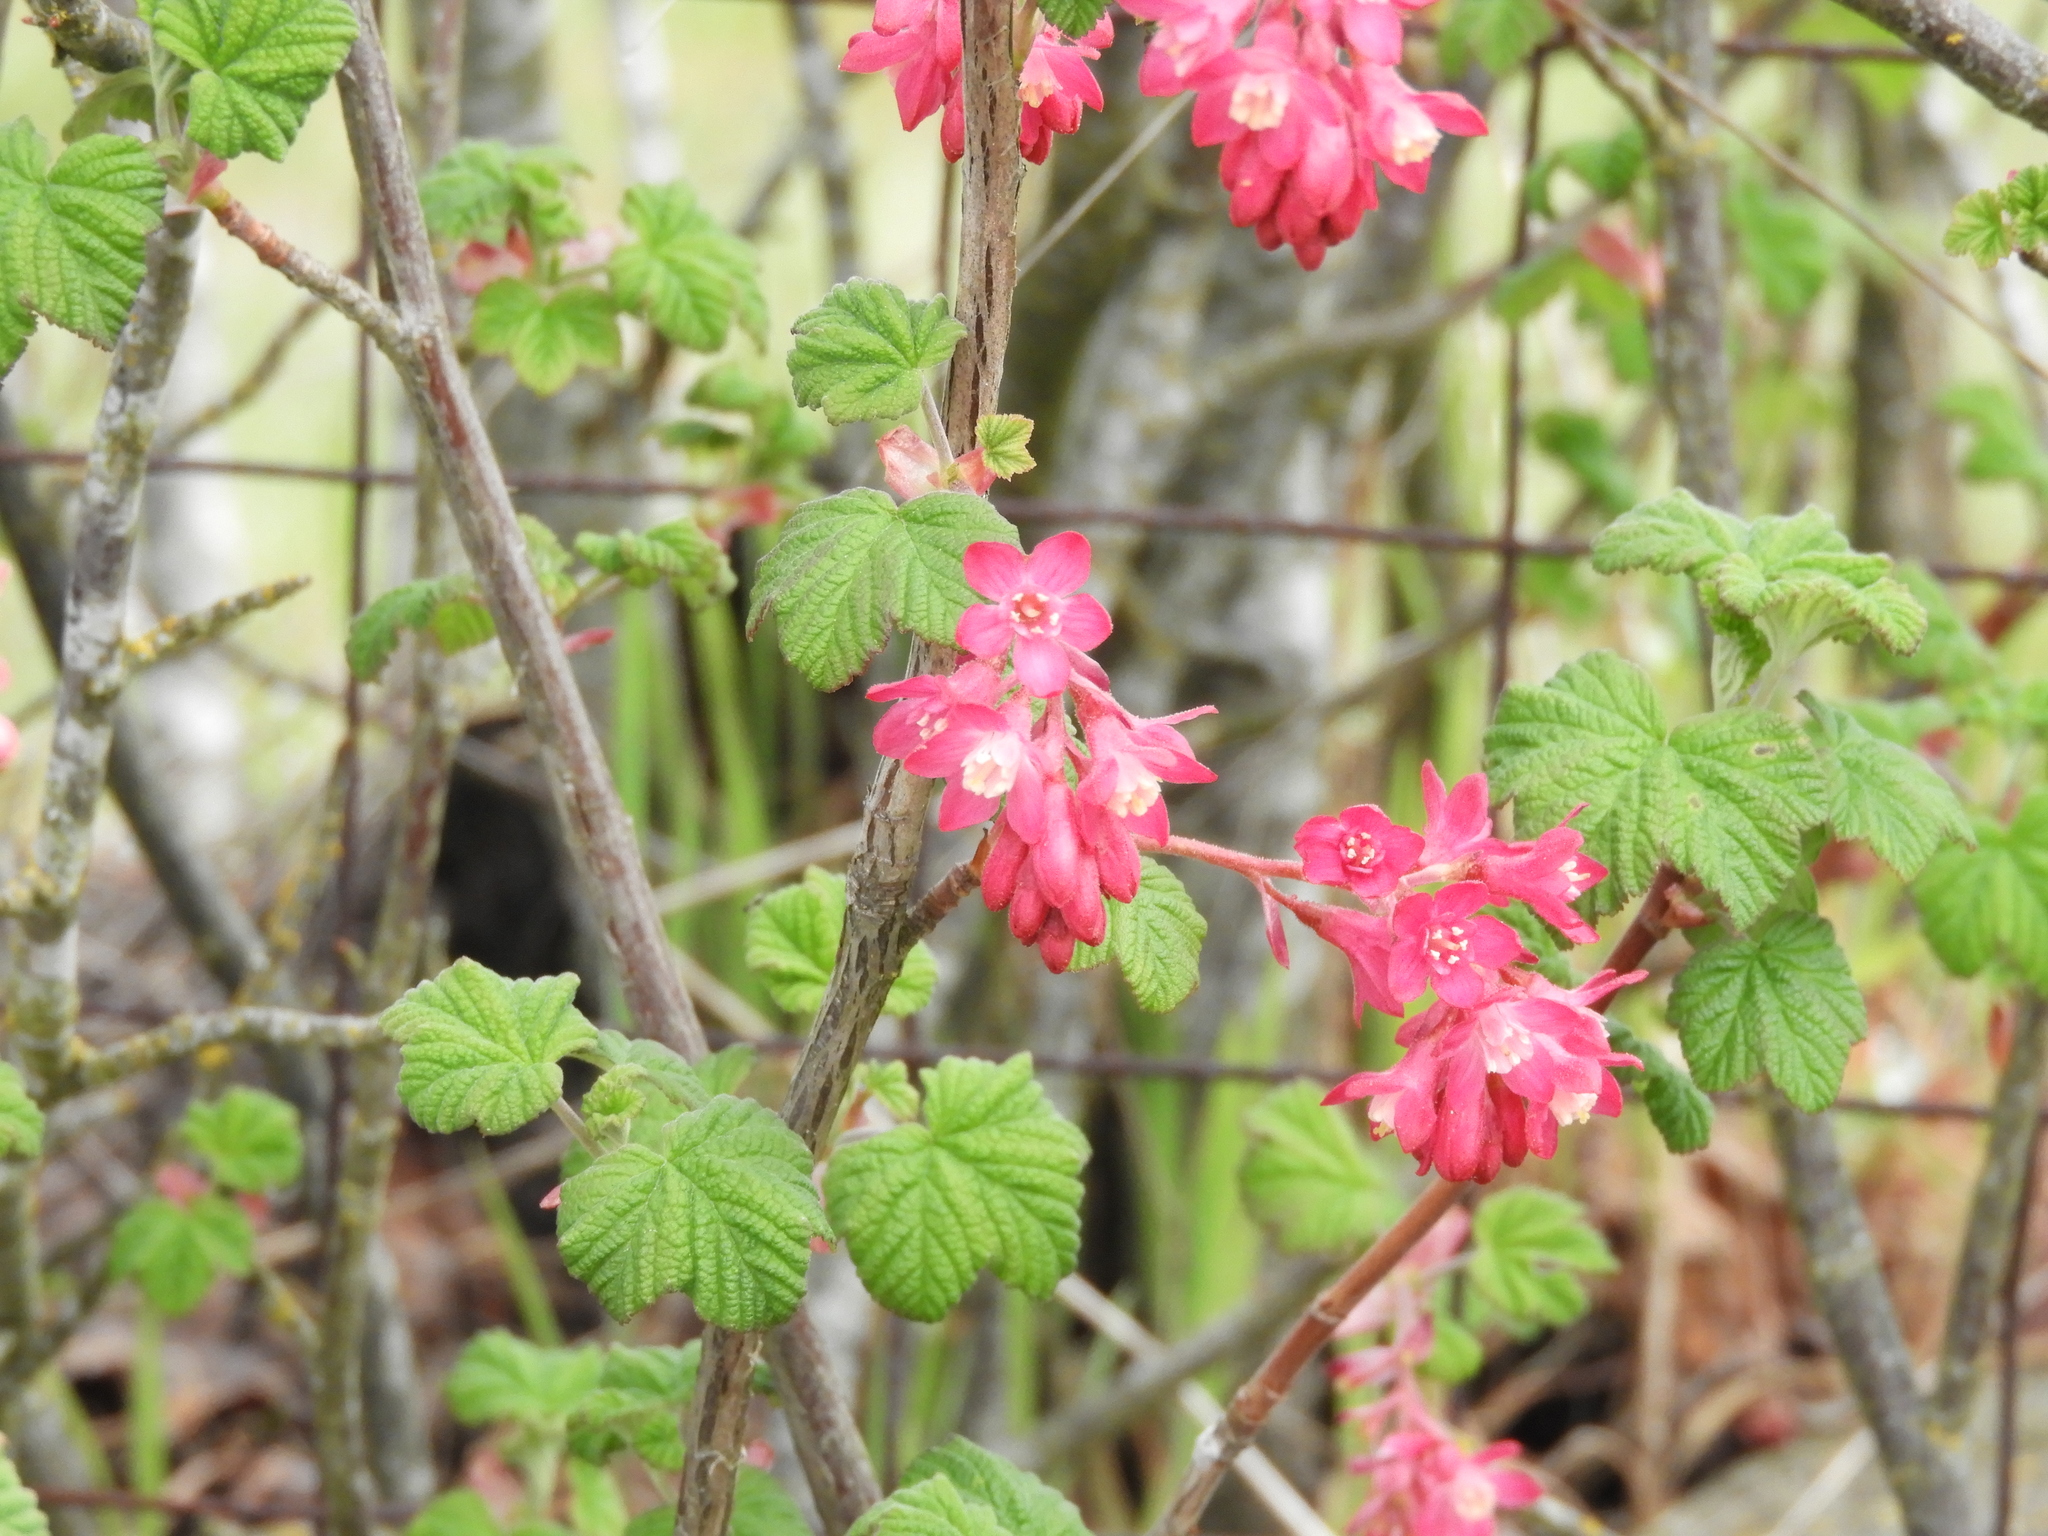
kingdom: Plantae
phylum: Tracheophyta
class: Magnoliopsida
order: Saxifragales
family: Grossulariaceae
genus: Ribes
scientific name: Ribes sanguineum
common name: Flowering currant
